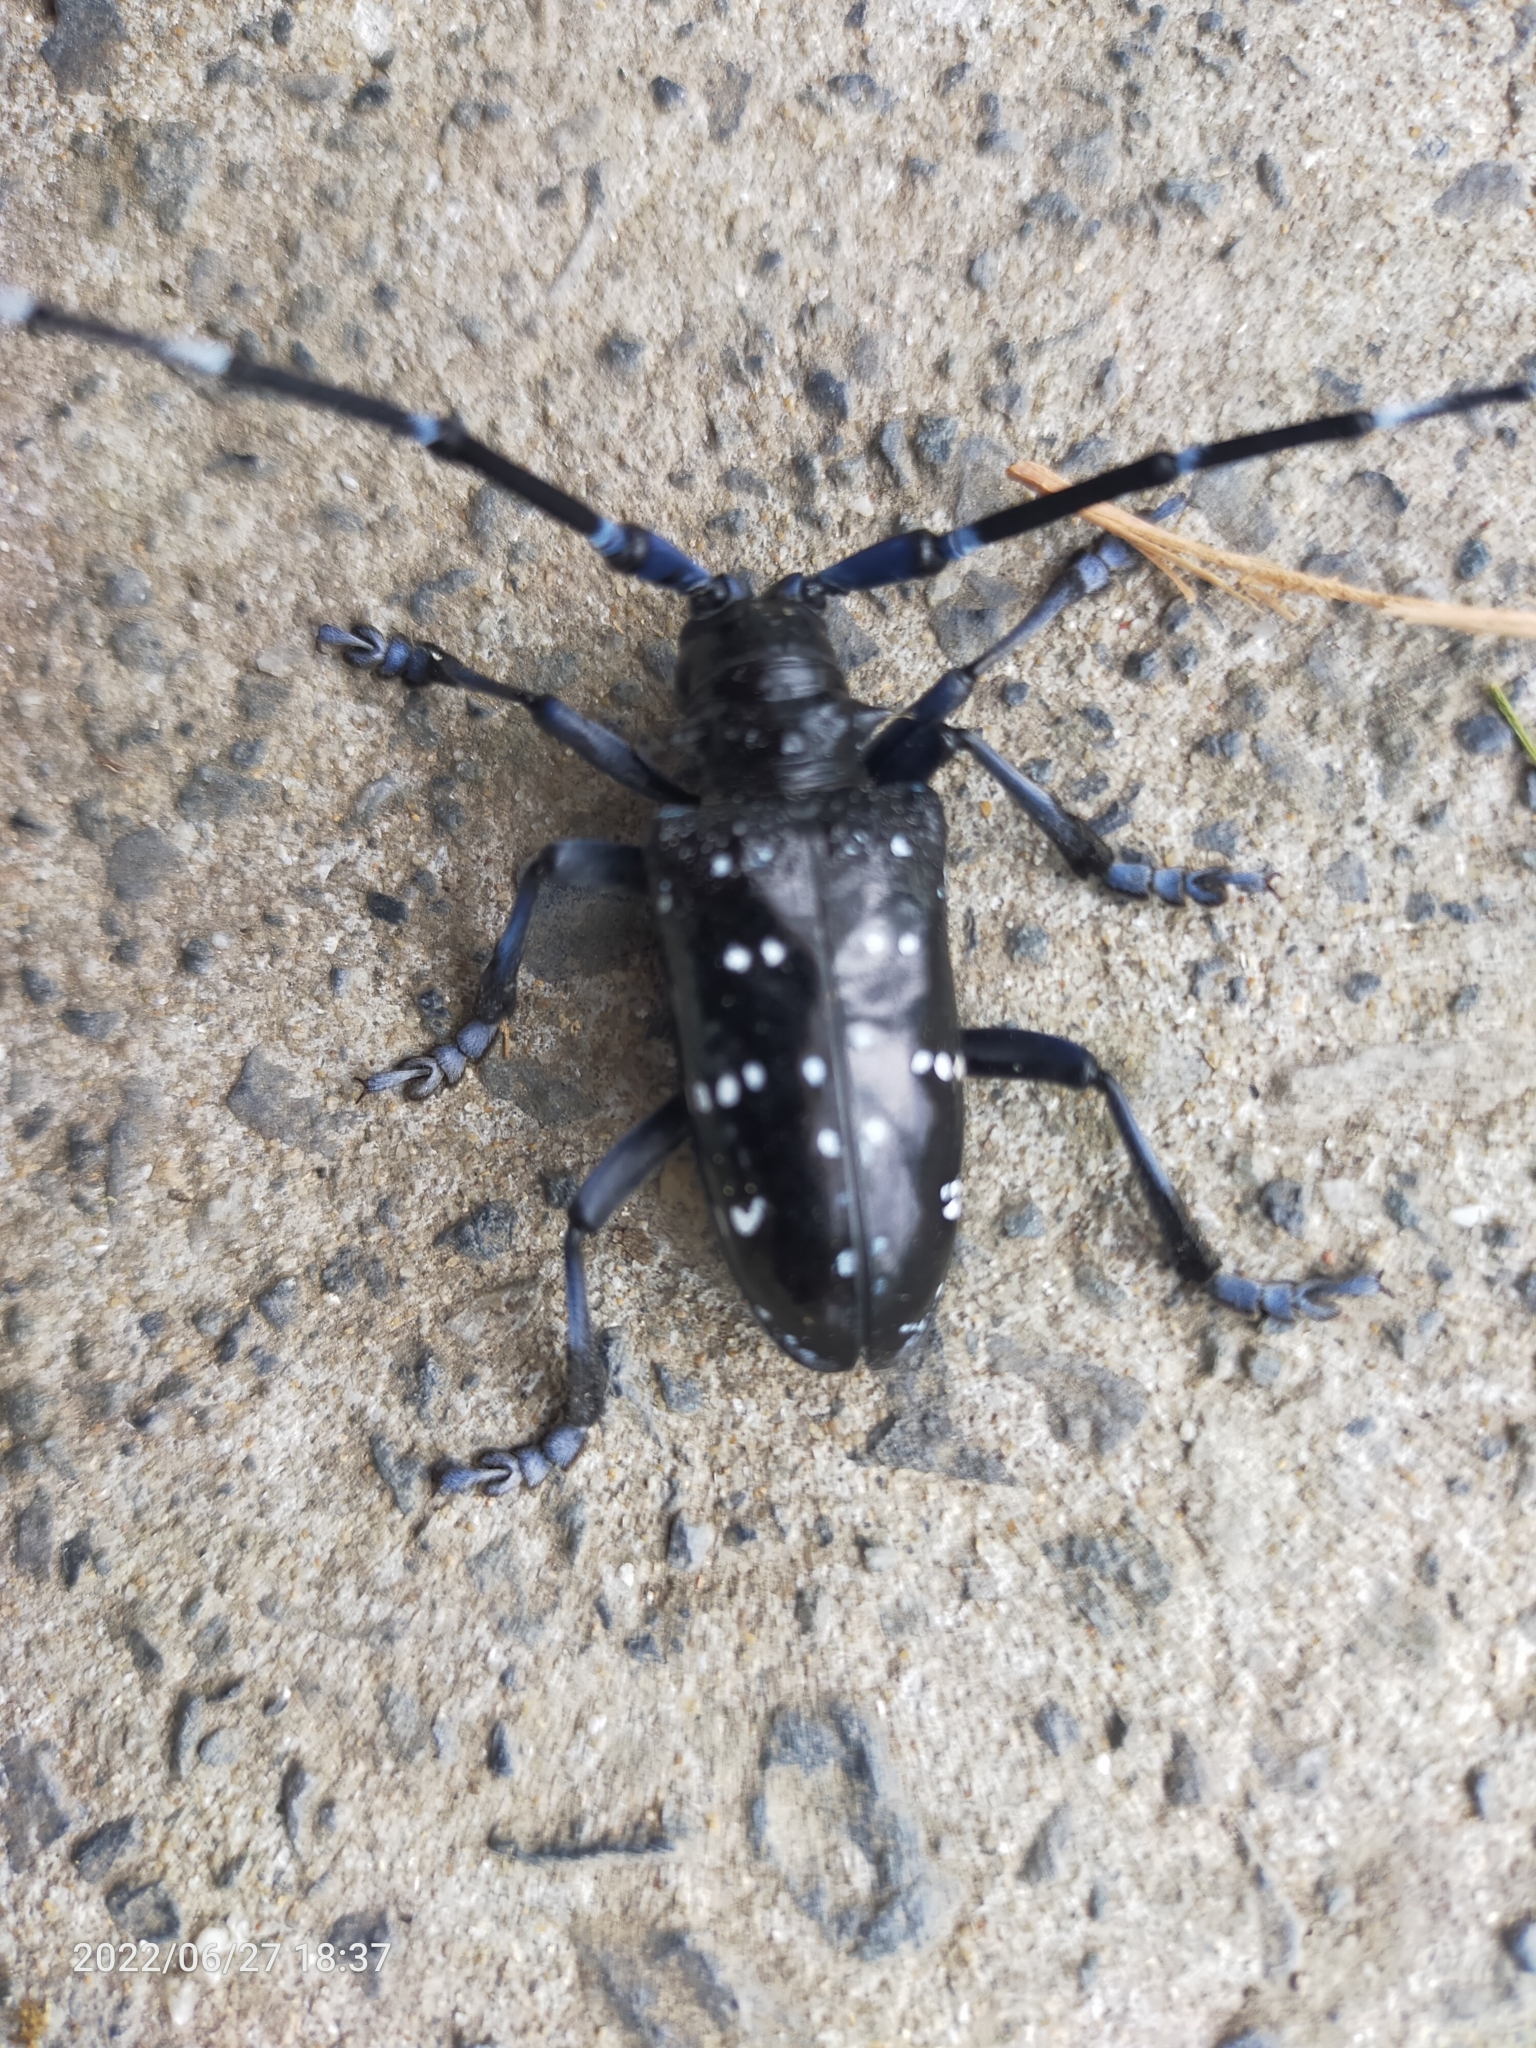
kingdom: Animalia
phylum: Arthropoda
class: Insecta
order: Coleoptera
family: Cerambycidae
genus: Anoplophora
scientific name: Anoplophora chinensis
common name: Citrus longhorned beetle
